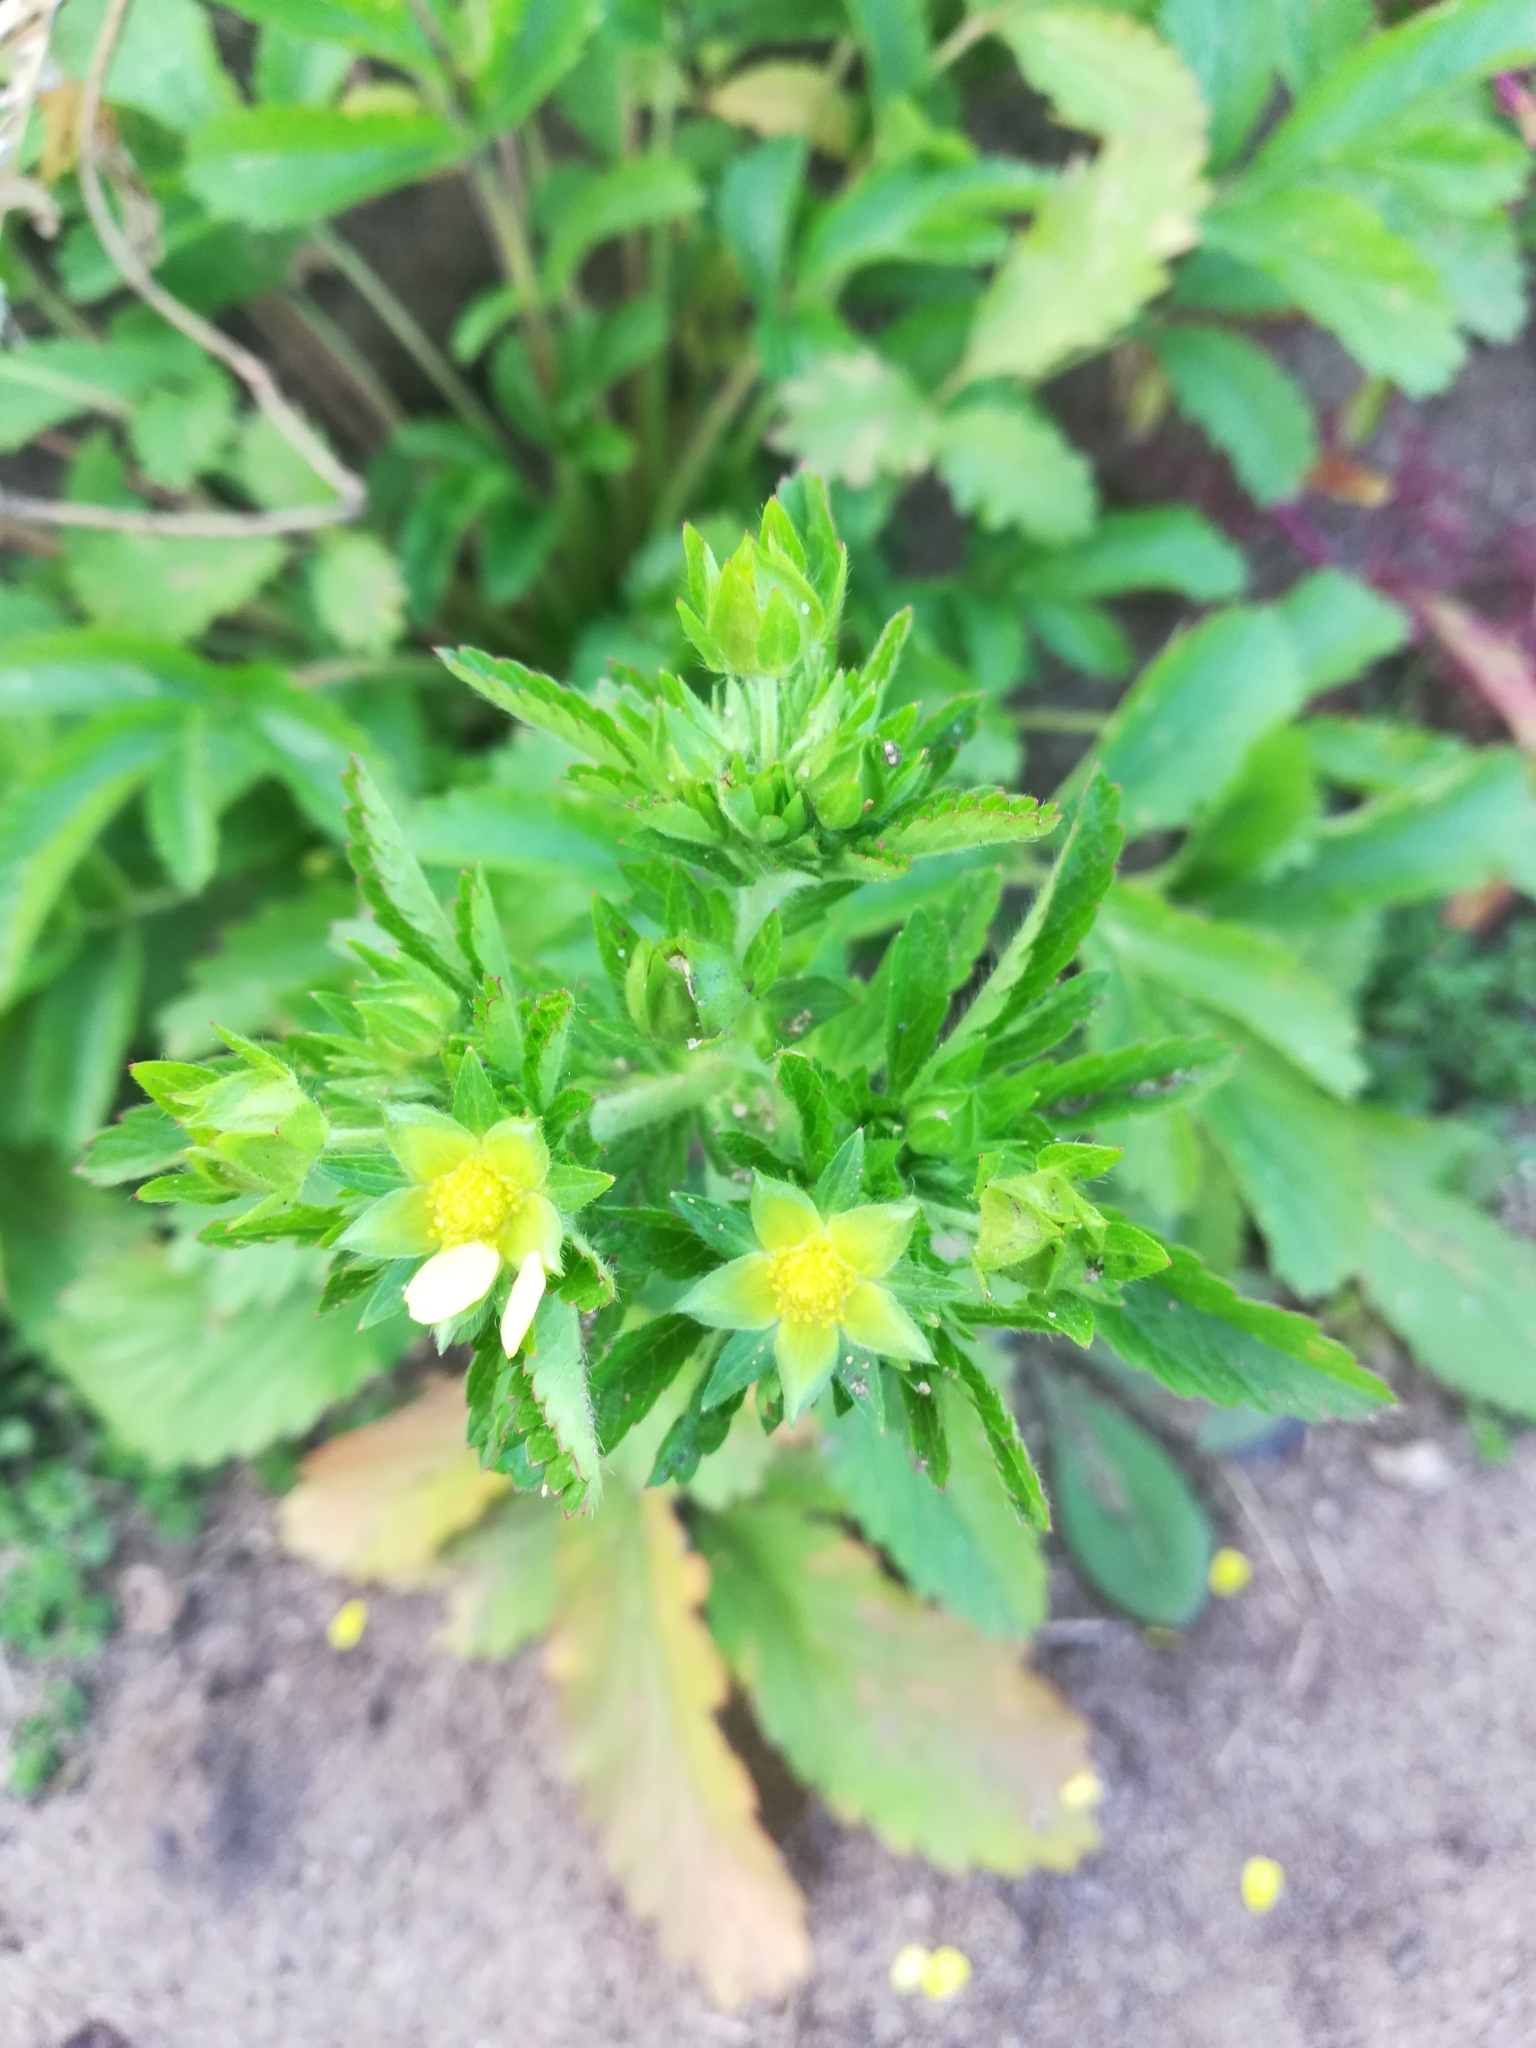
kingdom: Plantae
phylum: Tracheophyta
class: Magnoliopsida
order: Rosales
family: Rosaceae
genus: Potentilla
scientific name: Potentilla norvegica
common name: Ternate-leaved cinquefoil
